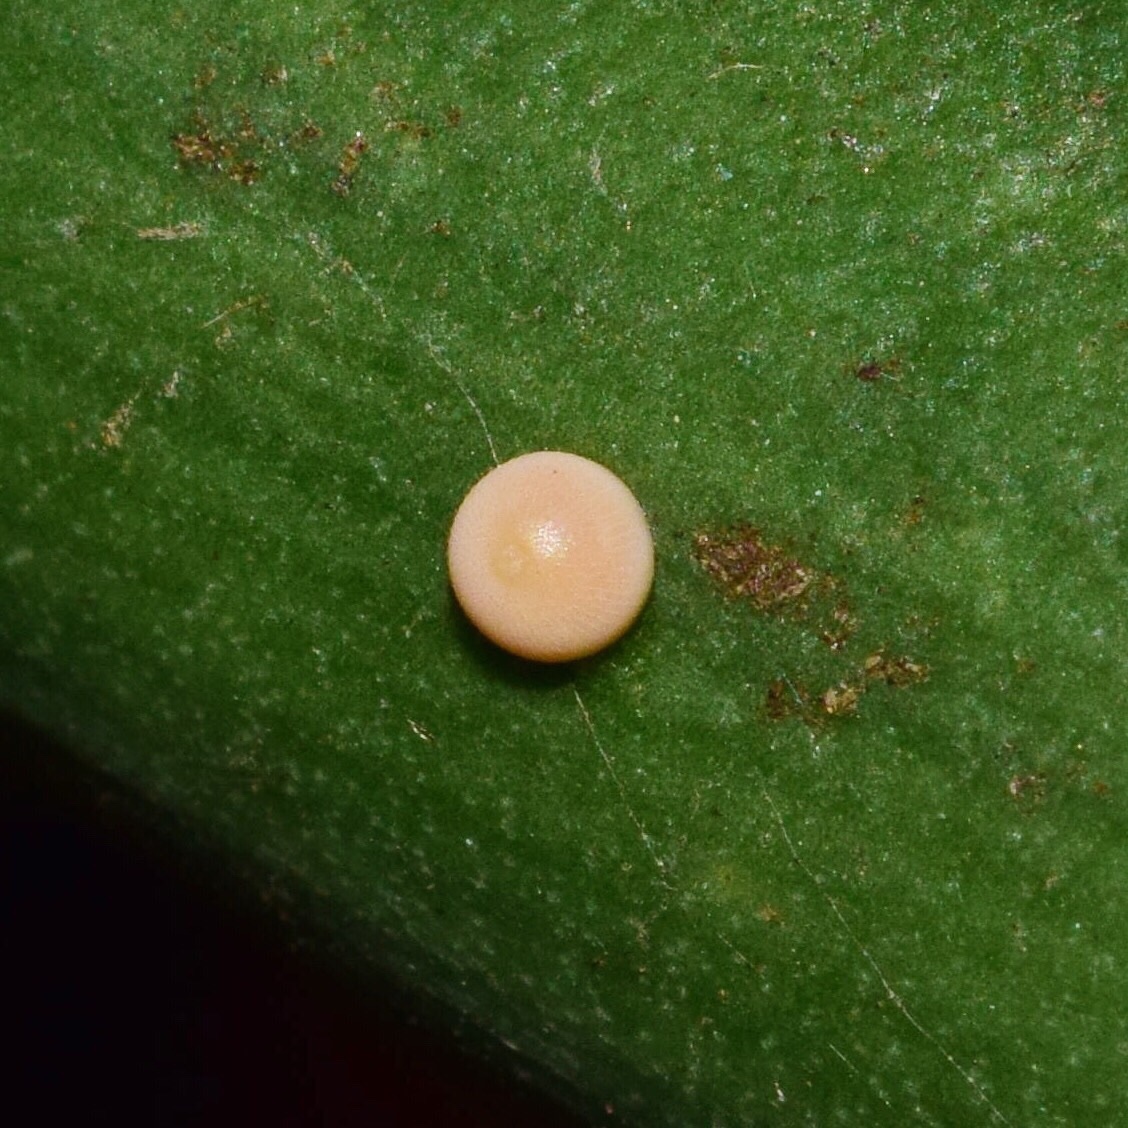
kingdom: Animalia
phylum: Arthropoda
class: Insecta
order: Lepidoptera
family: Hesperiidae
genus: Artitropa
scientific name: Artitropa erinnys
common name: Bush nightfighter
